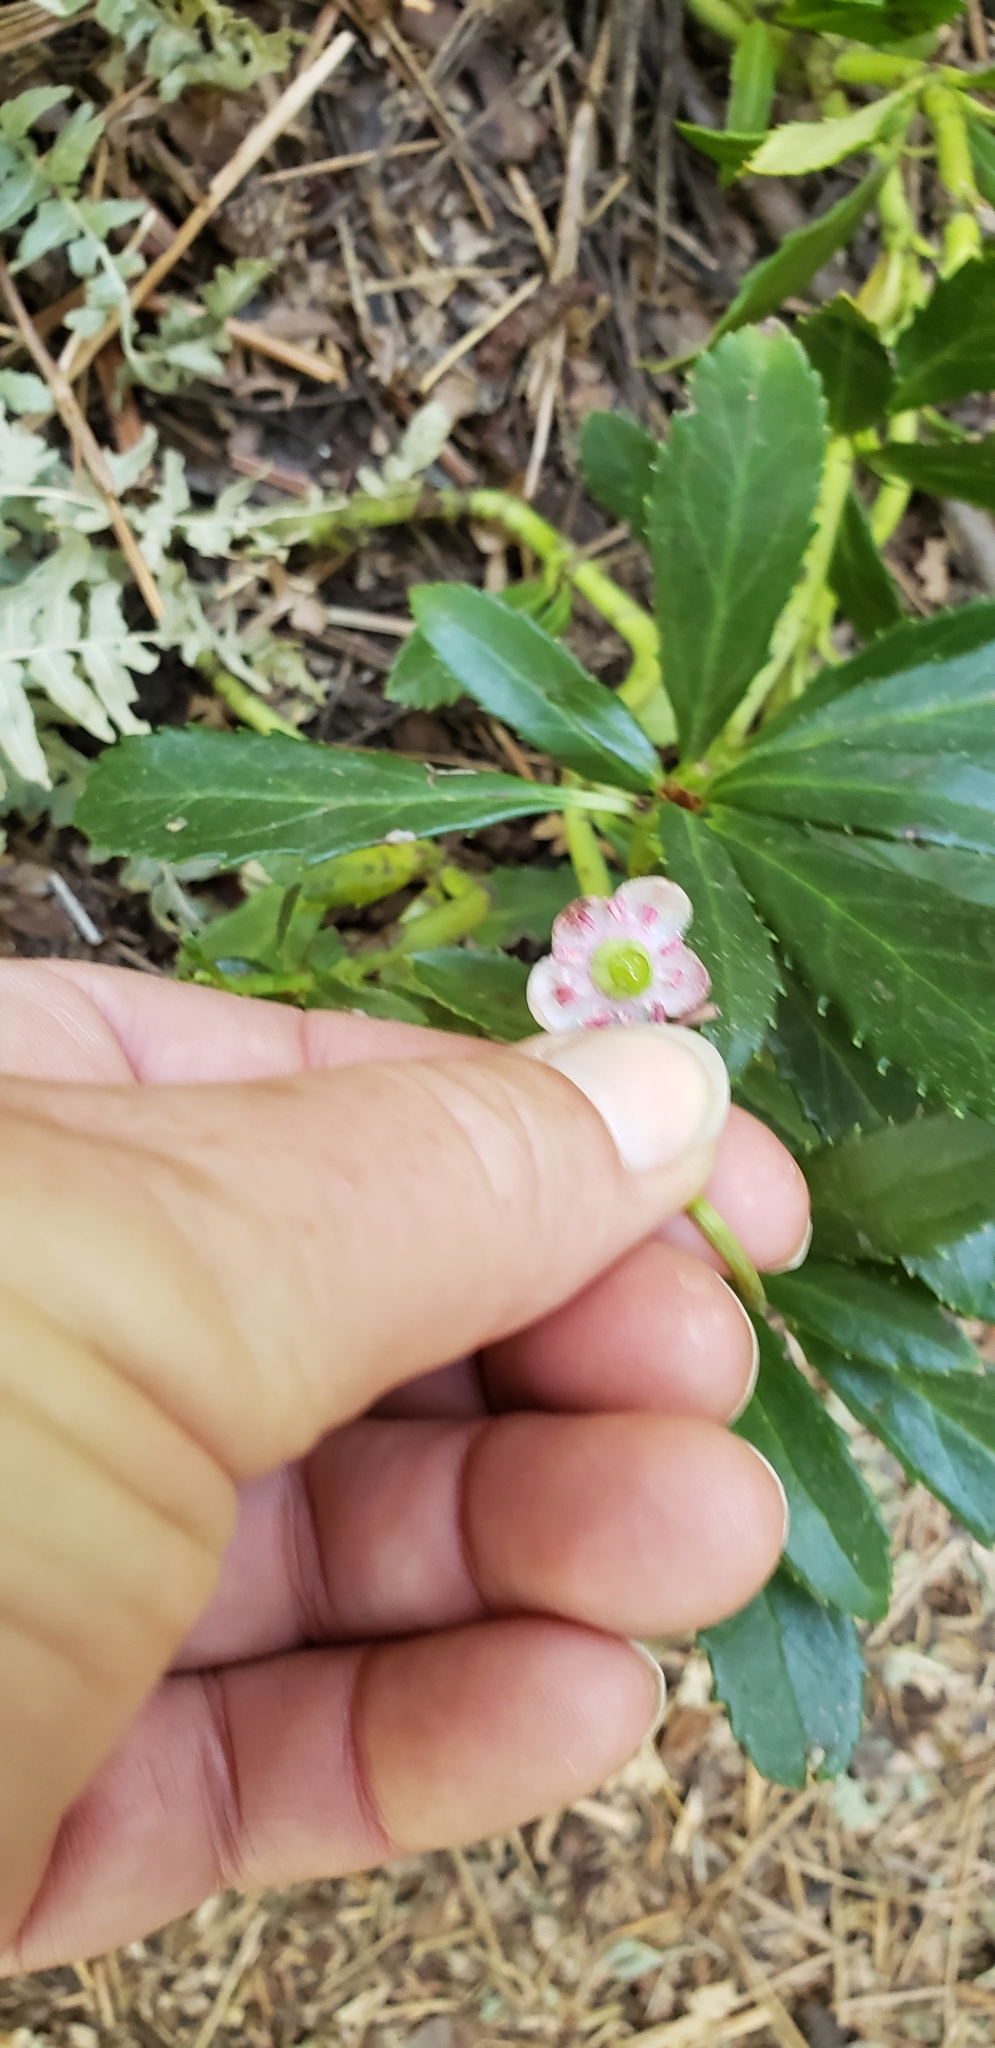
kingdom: Plantae
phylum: Tracheophyta
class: Magnoliopsida
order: Ericales
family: Ericaceae
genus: Chimaphila
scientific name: Chimaphila umbellata
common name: Pipsissewa
